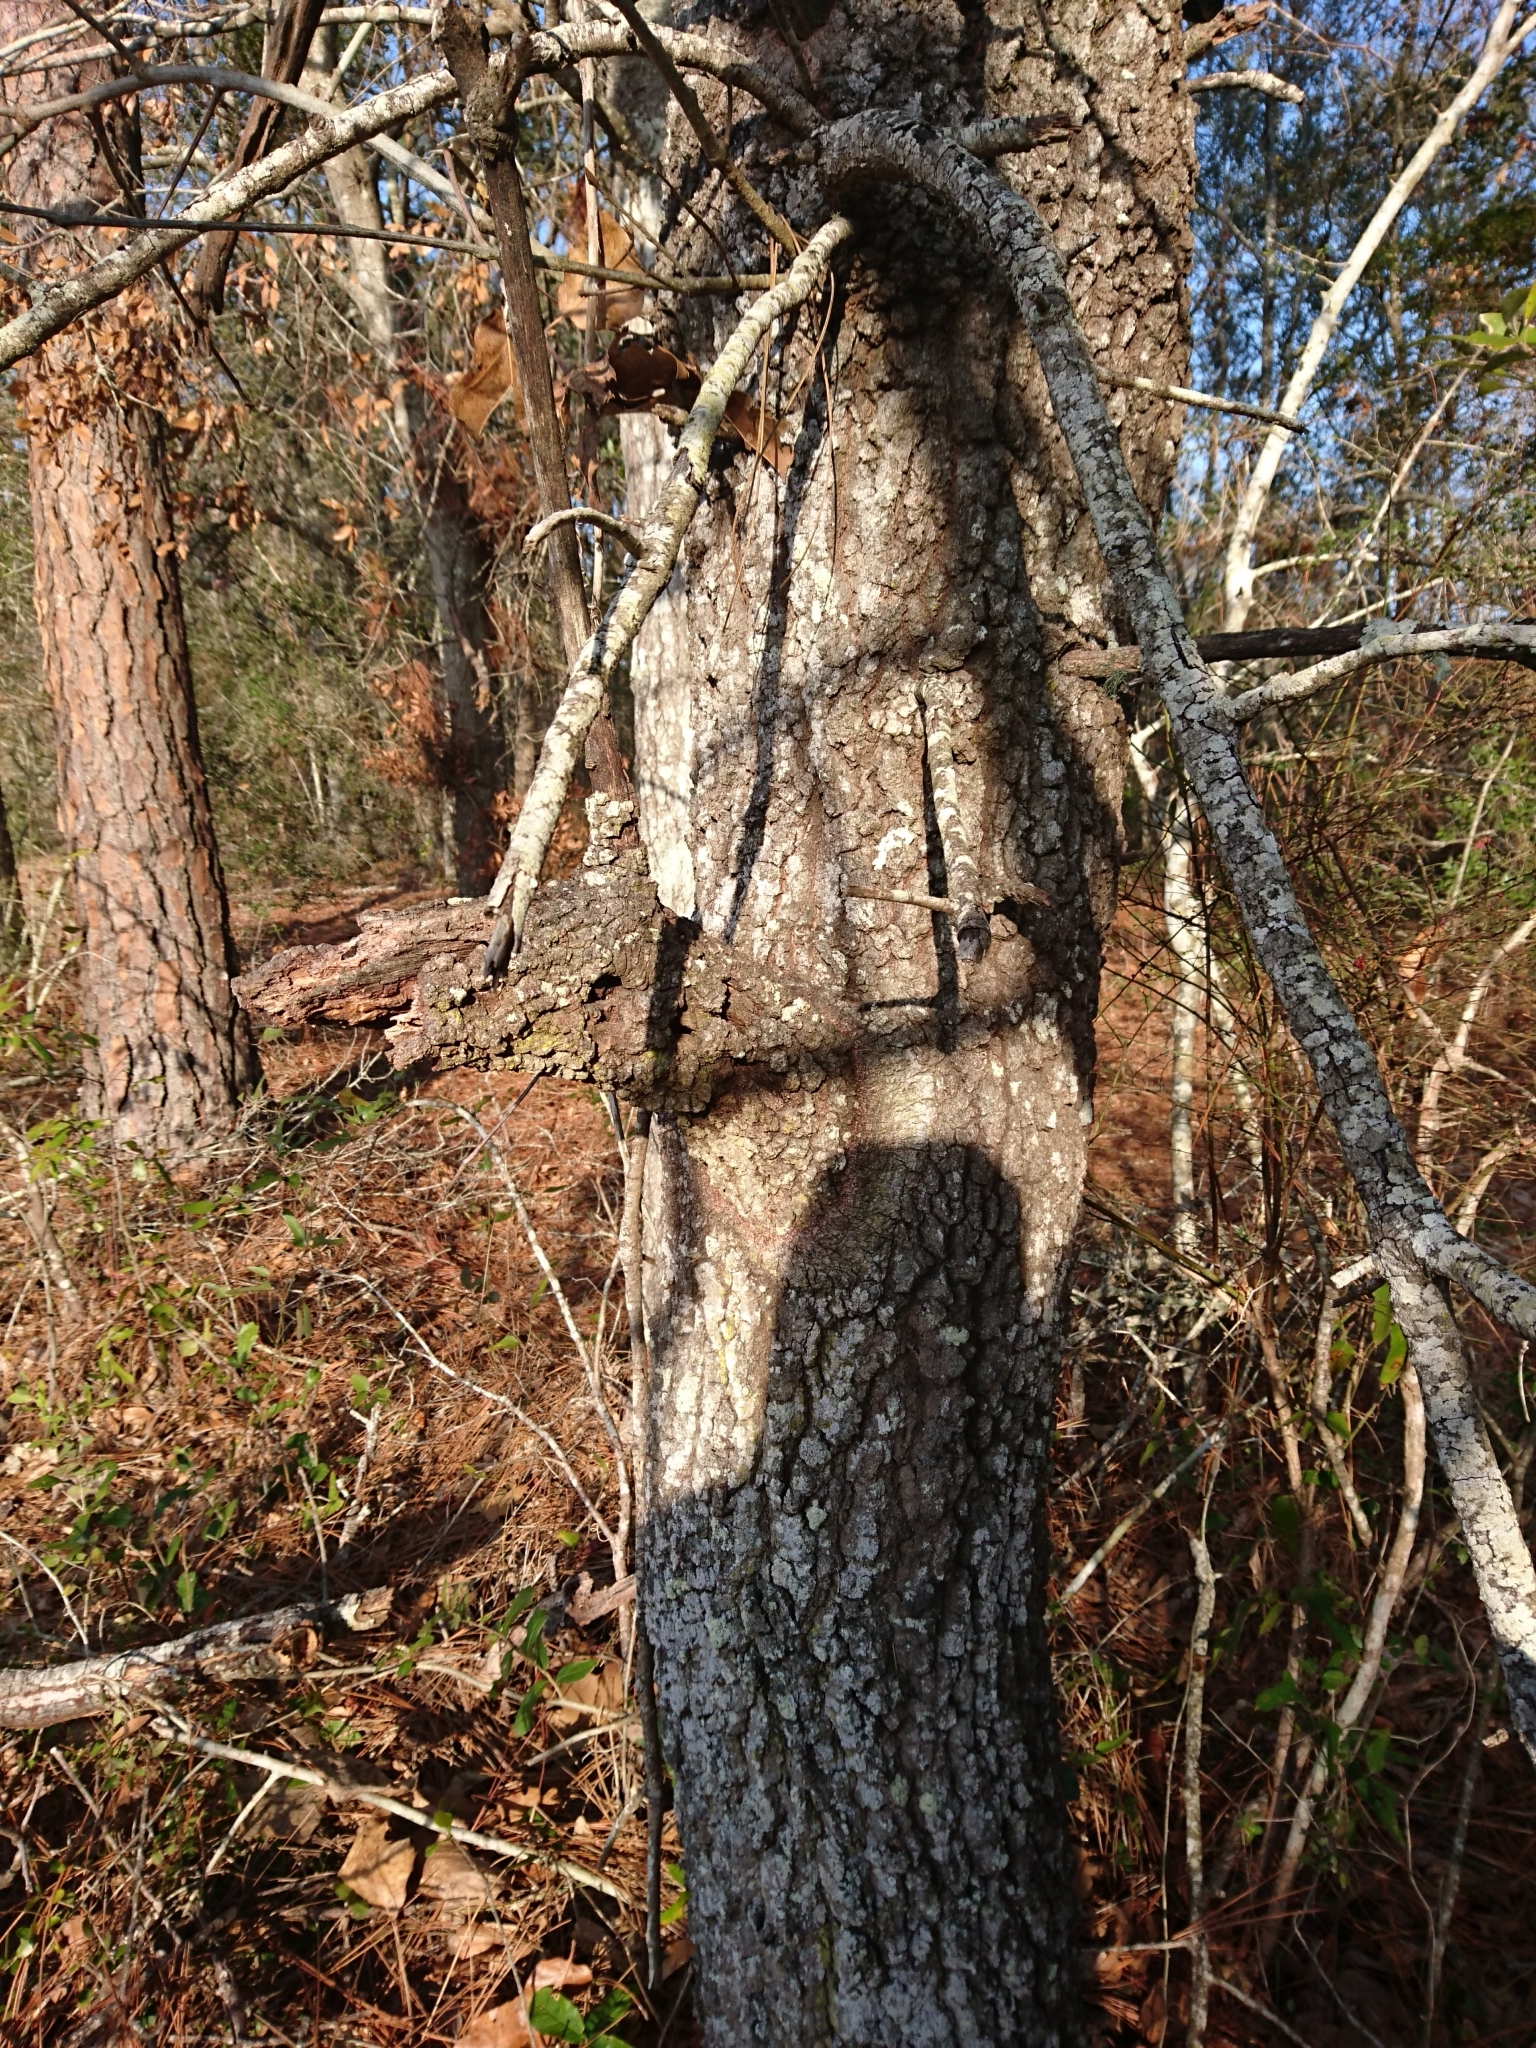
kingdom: Plantae
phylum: Tracheophyta
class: Magnoliopsida
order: Fagales
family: Fagaceae
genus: Quercus
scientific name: Quercus marilandica
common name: Blackjack oak
